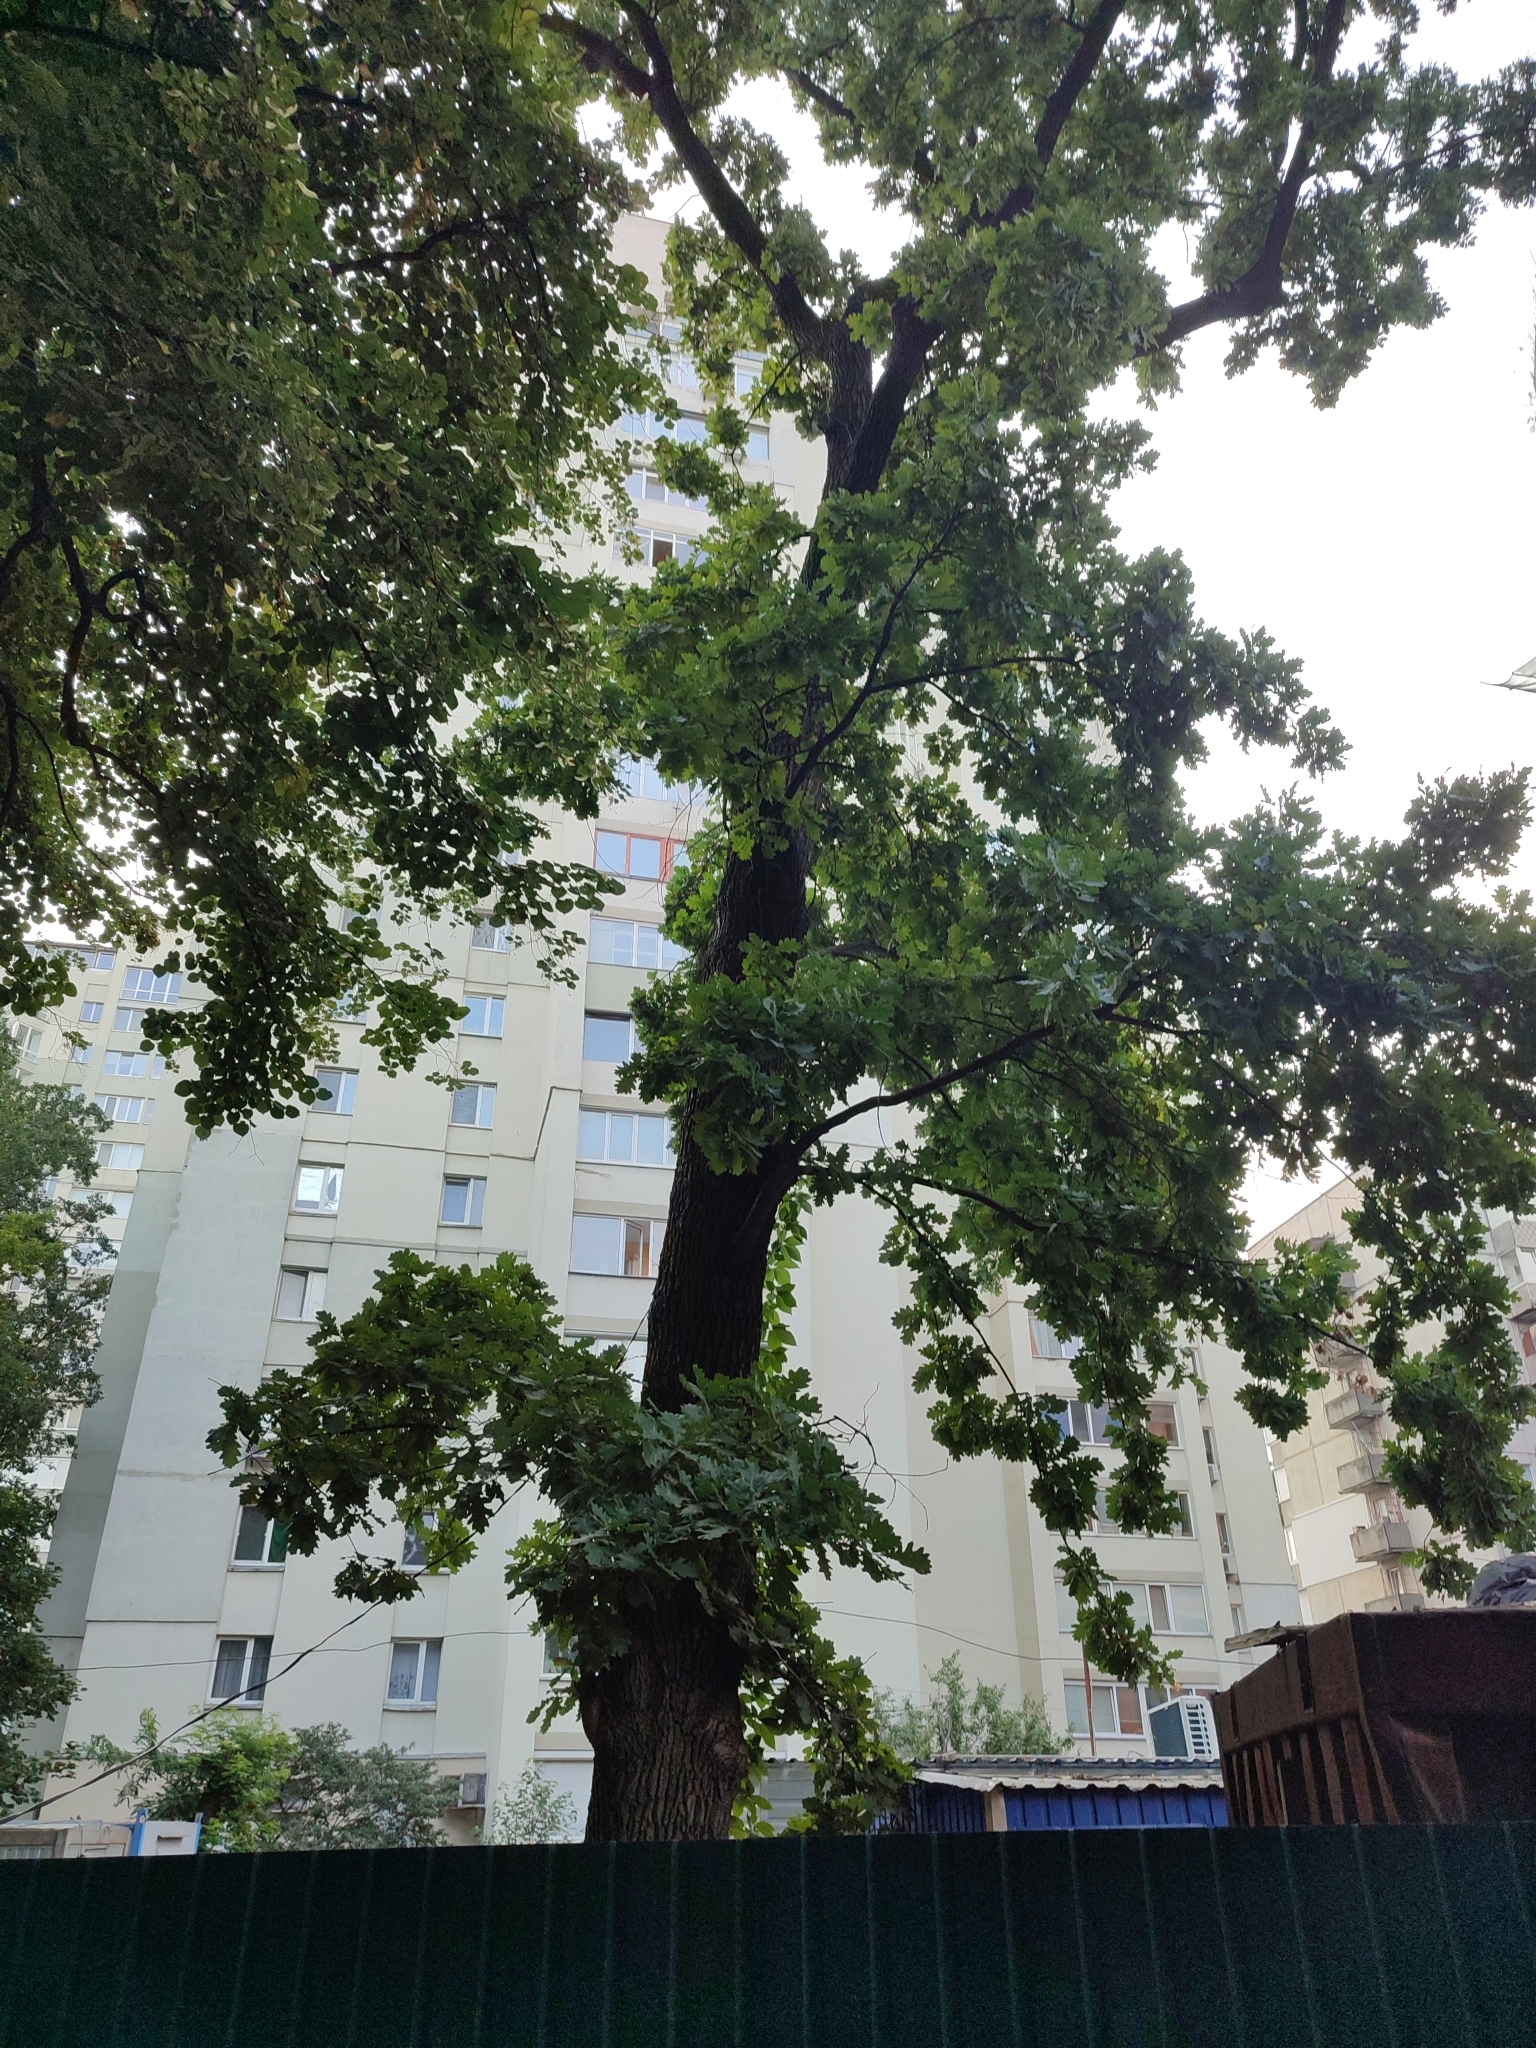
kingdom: Plantae
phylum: Tracheophyta
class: Magnoliopsida
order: Fagales
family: Fagaceae
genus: Quercus
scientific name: Quercus robur
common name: Pedunculate oak
